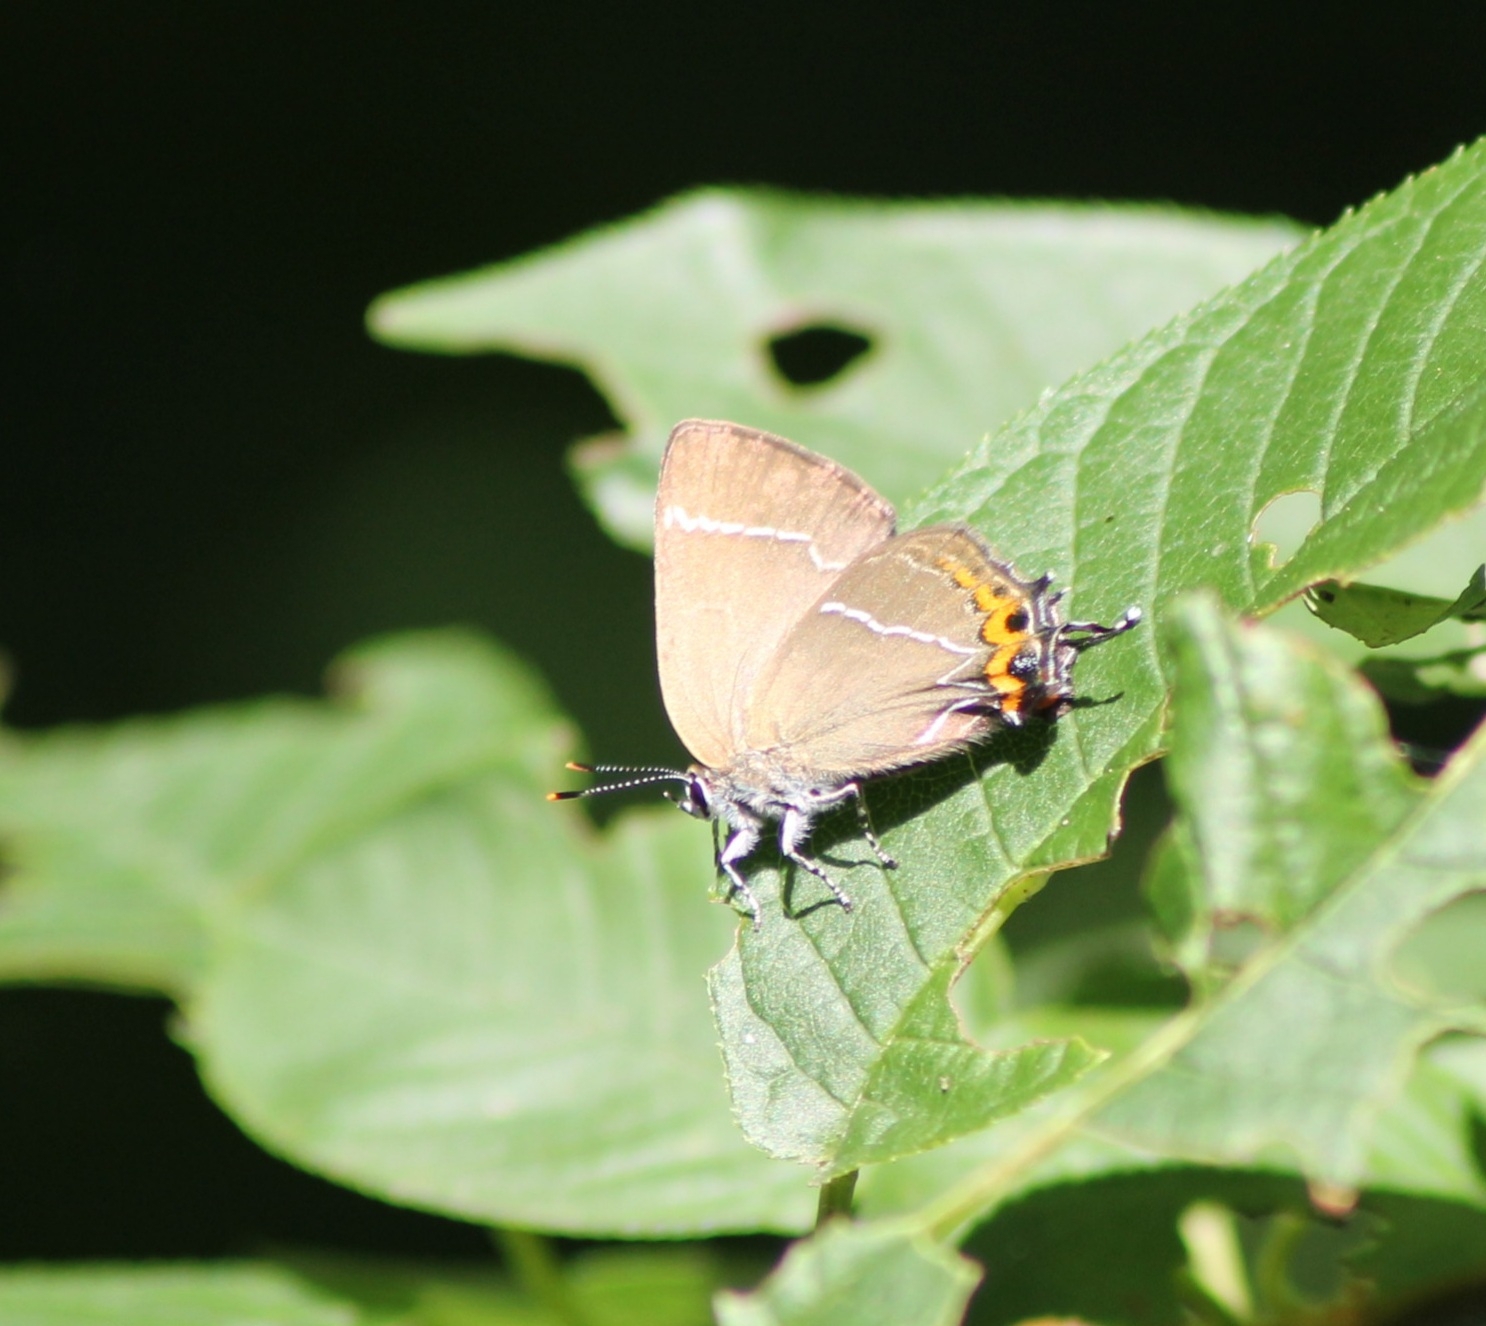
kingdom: Animalia
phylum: Arthropoda
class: Insecta
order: Lepidoptera
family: Lycaenidae
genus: Satyrium
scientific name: Satyrium w-album
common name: White-letter hairstreak
